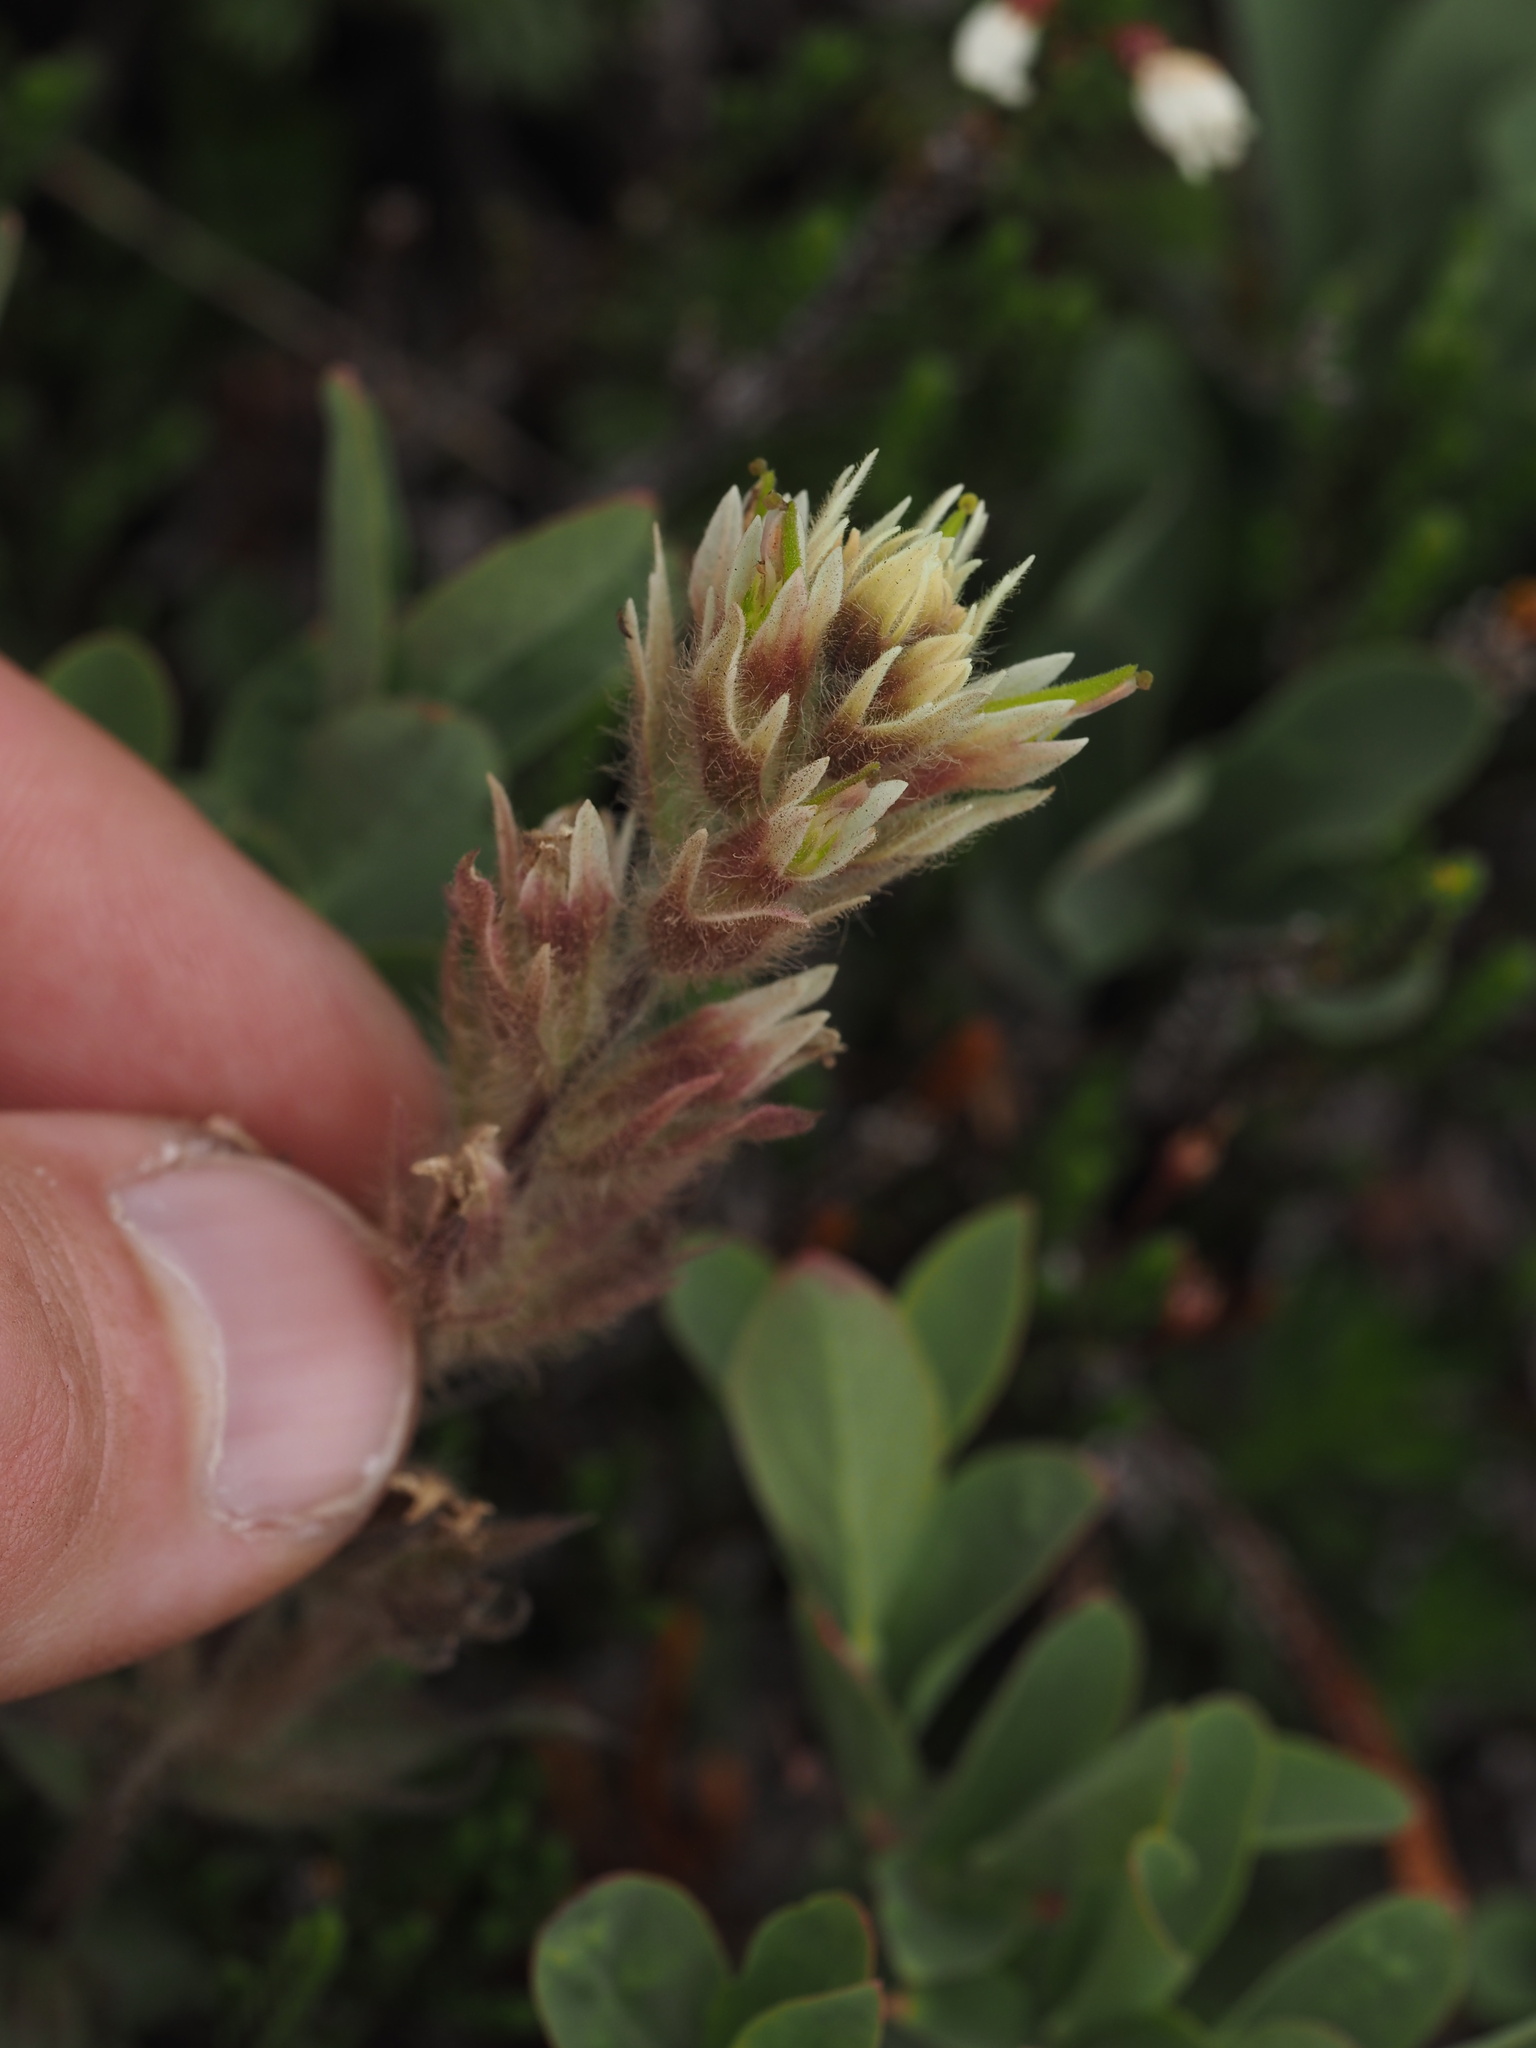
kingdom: Plantae
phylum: Tracheophyta
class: Magnoliopsida
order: Lamiales
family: Orobanchaceae
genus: Castilleja
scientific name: Castilleja parviflora
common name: Mountain paintbrush
